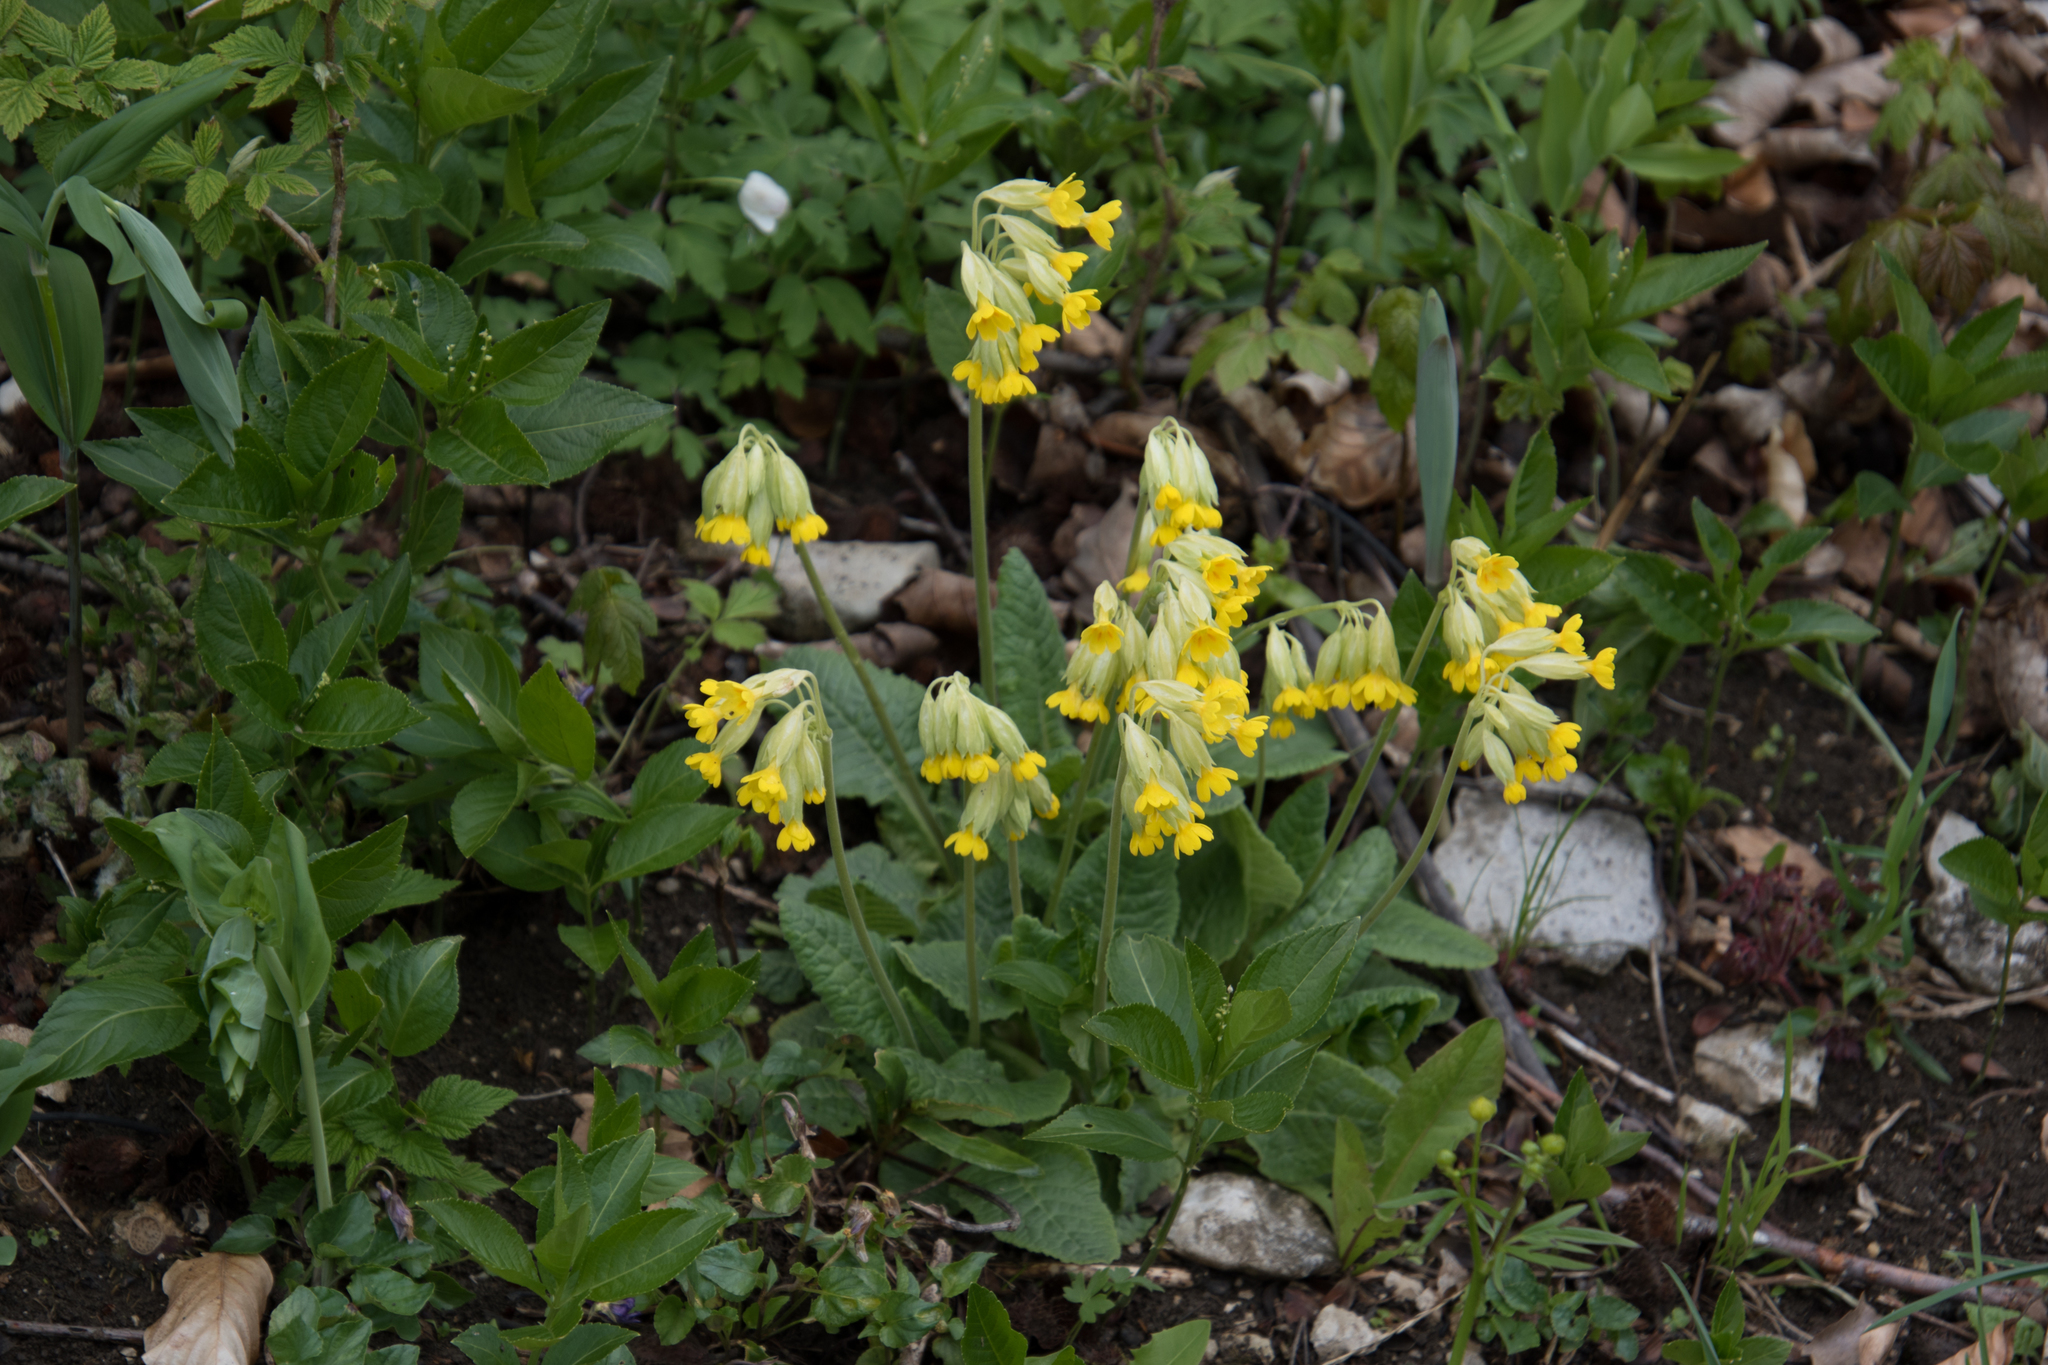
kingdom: Plantae
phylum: Tracheophyta
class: Magnoliopsida
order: Ericales
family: Primulaceae
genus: Primula
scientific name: Primula veris
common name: Cowslip
